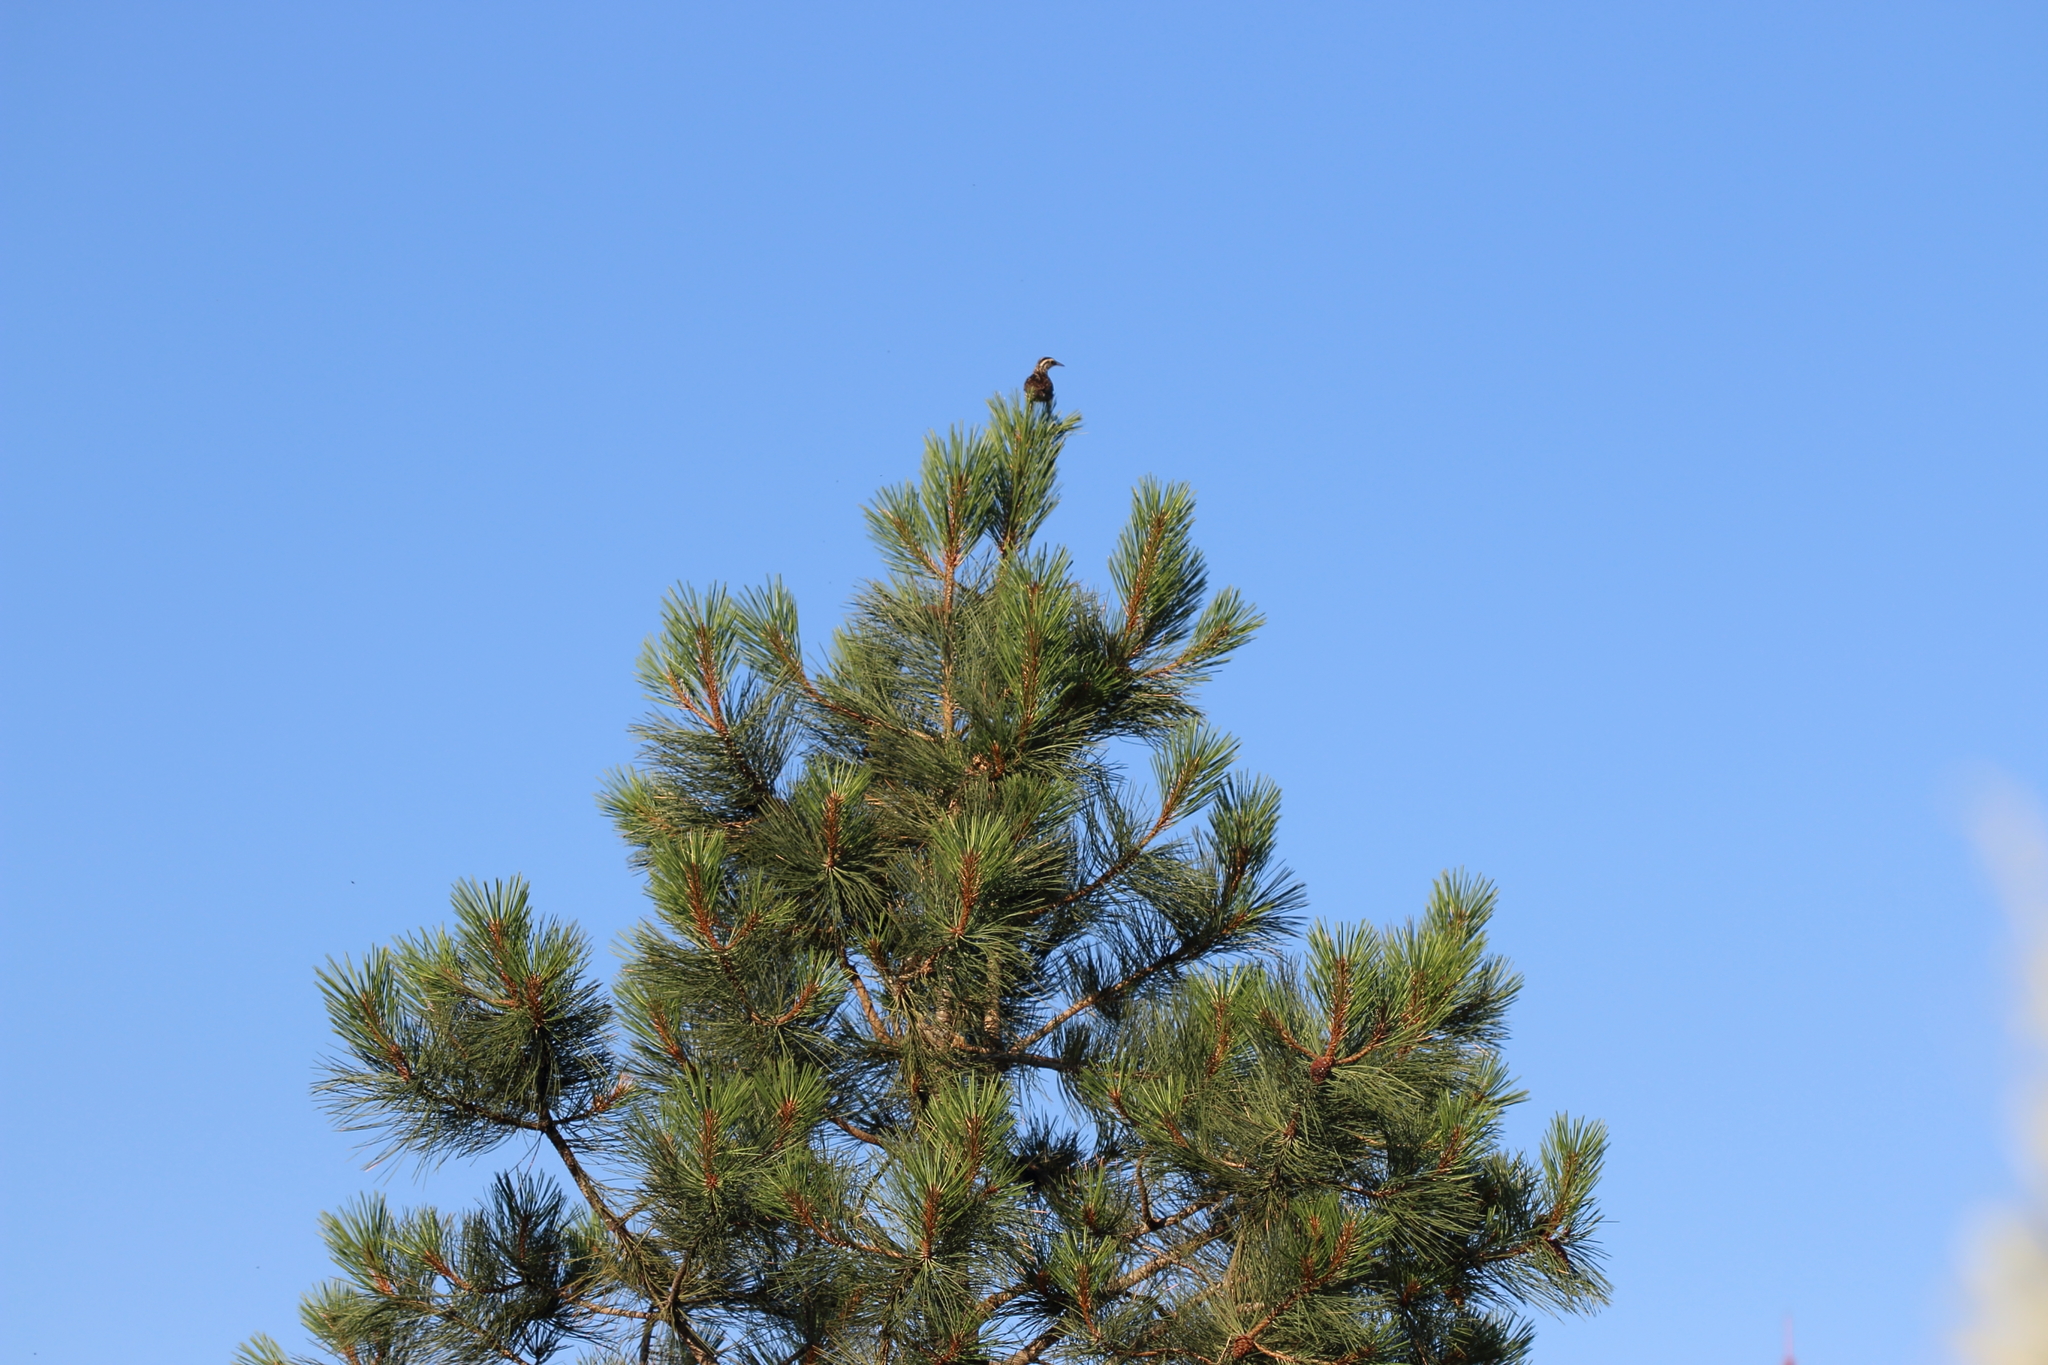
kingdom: Animalia
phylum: Chordata
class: Aves
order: Passeriformes
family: Icteridae
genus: Sturnella
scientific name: Sturnella neglecta
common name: Western meadowlark
